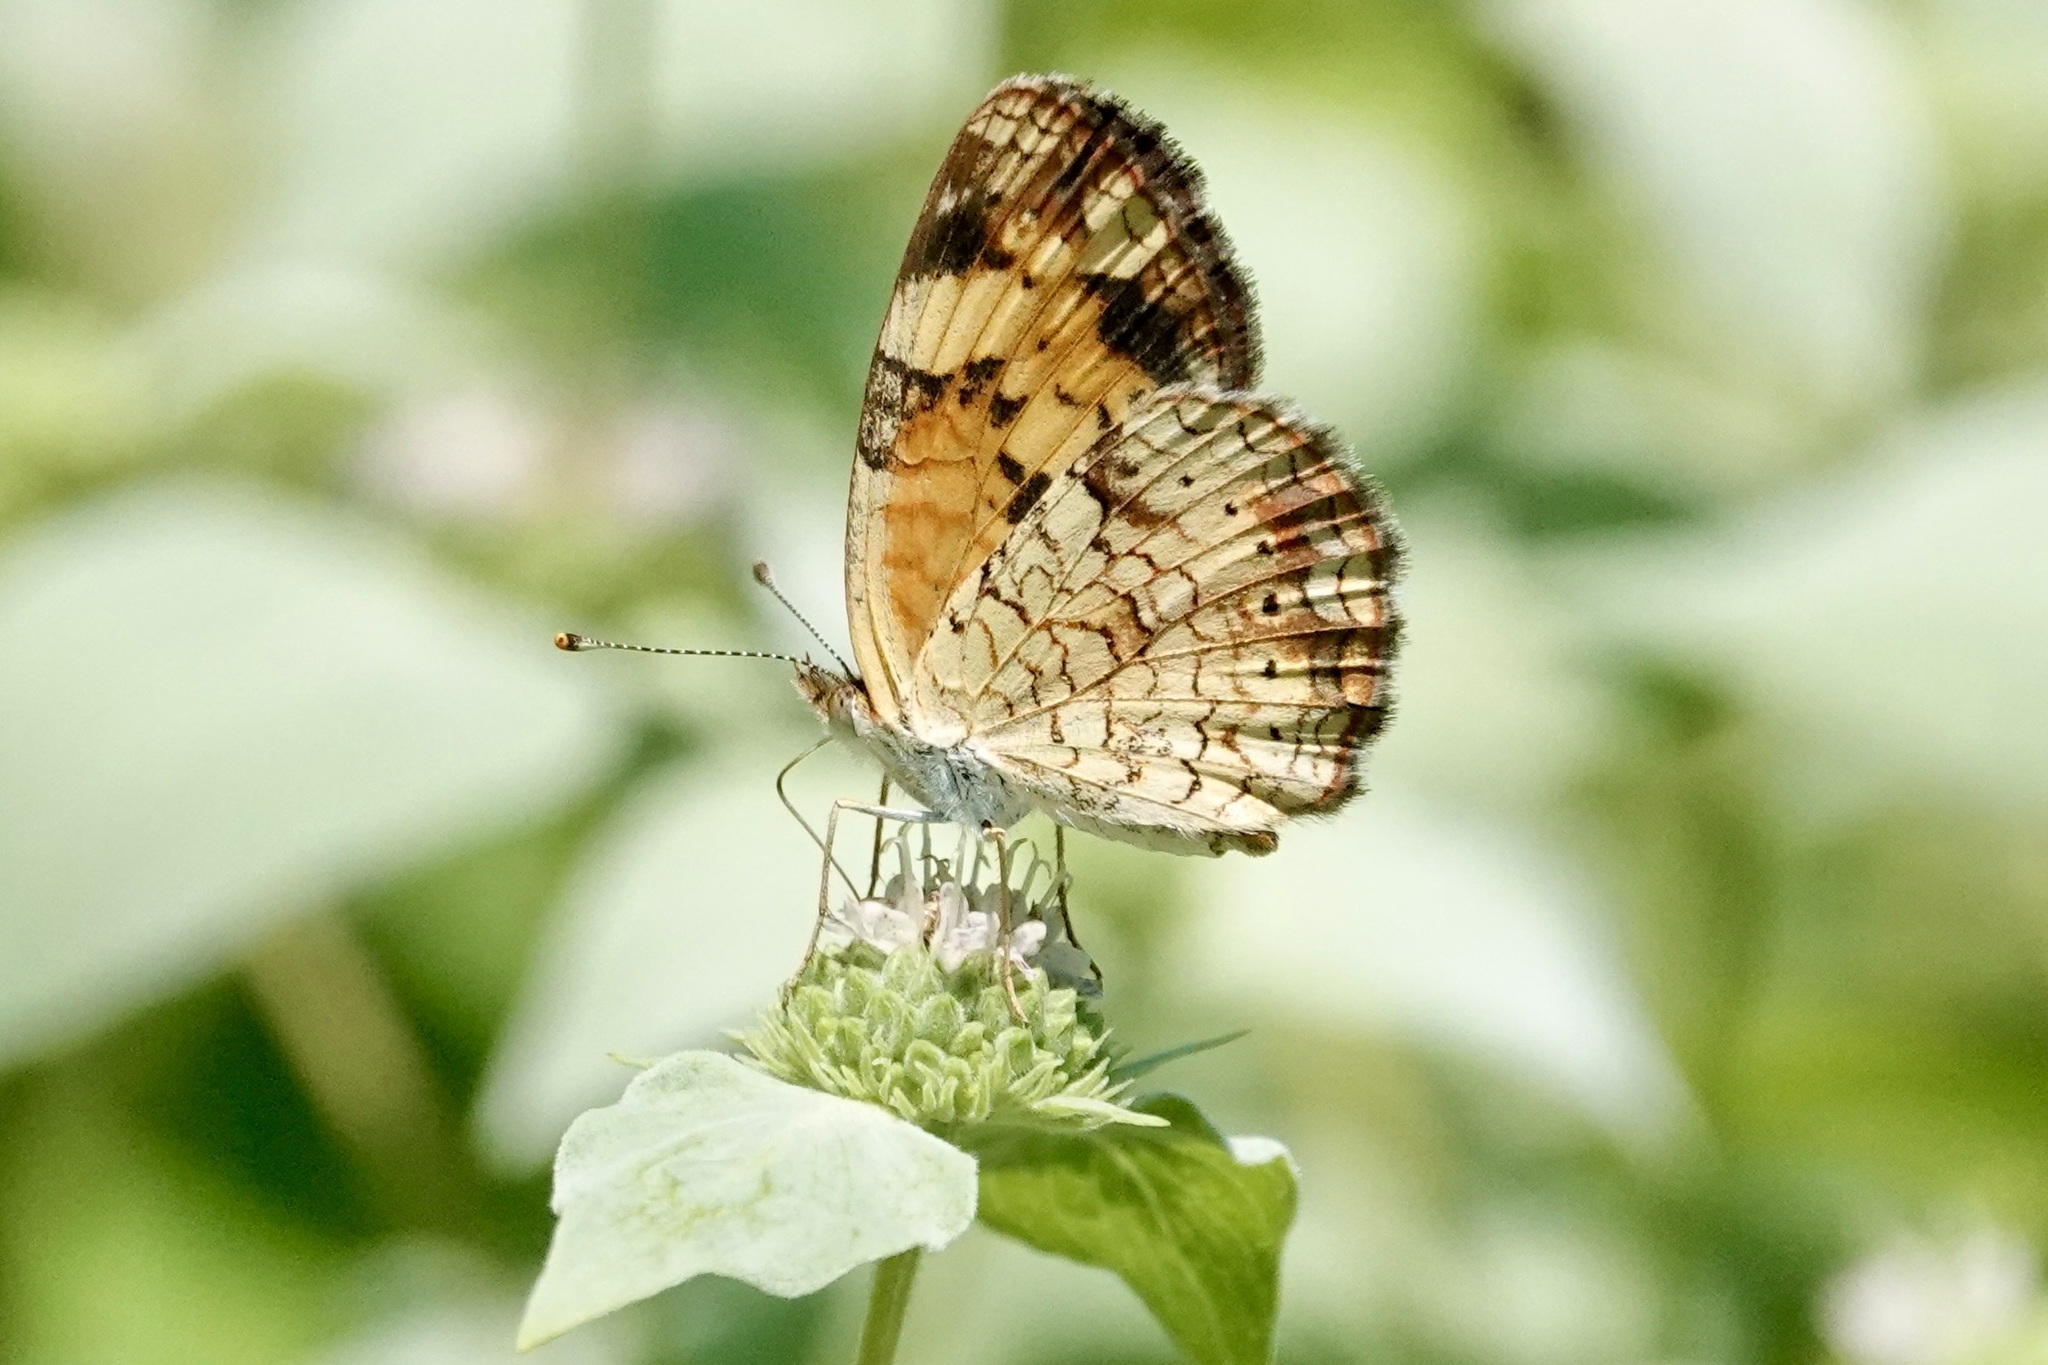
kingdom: Animalia
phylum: Arthropoda
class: Insecta
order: Lepidoptera
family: Nymphalidae
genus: Phyciodes
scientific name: Phyciodes tharos
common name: Pearl crescent
